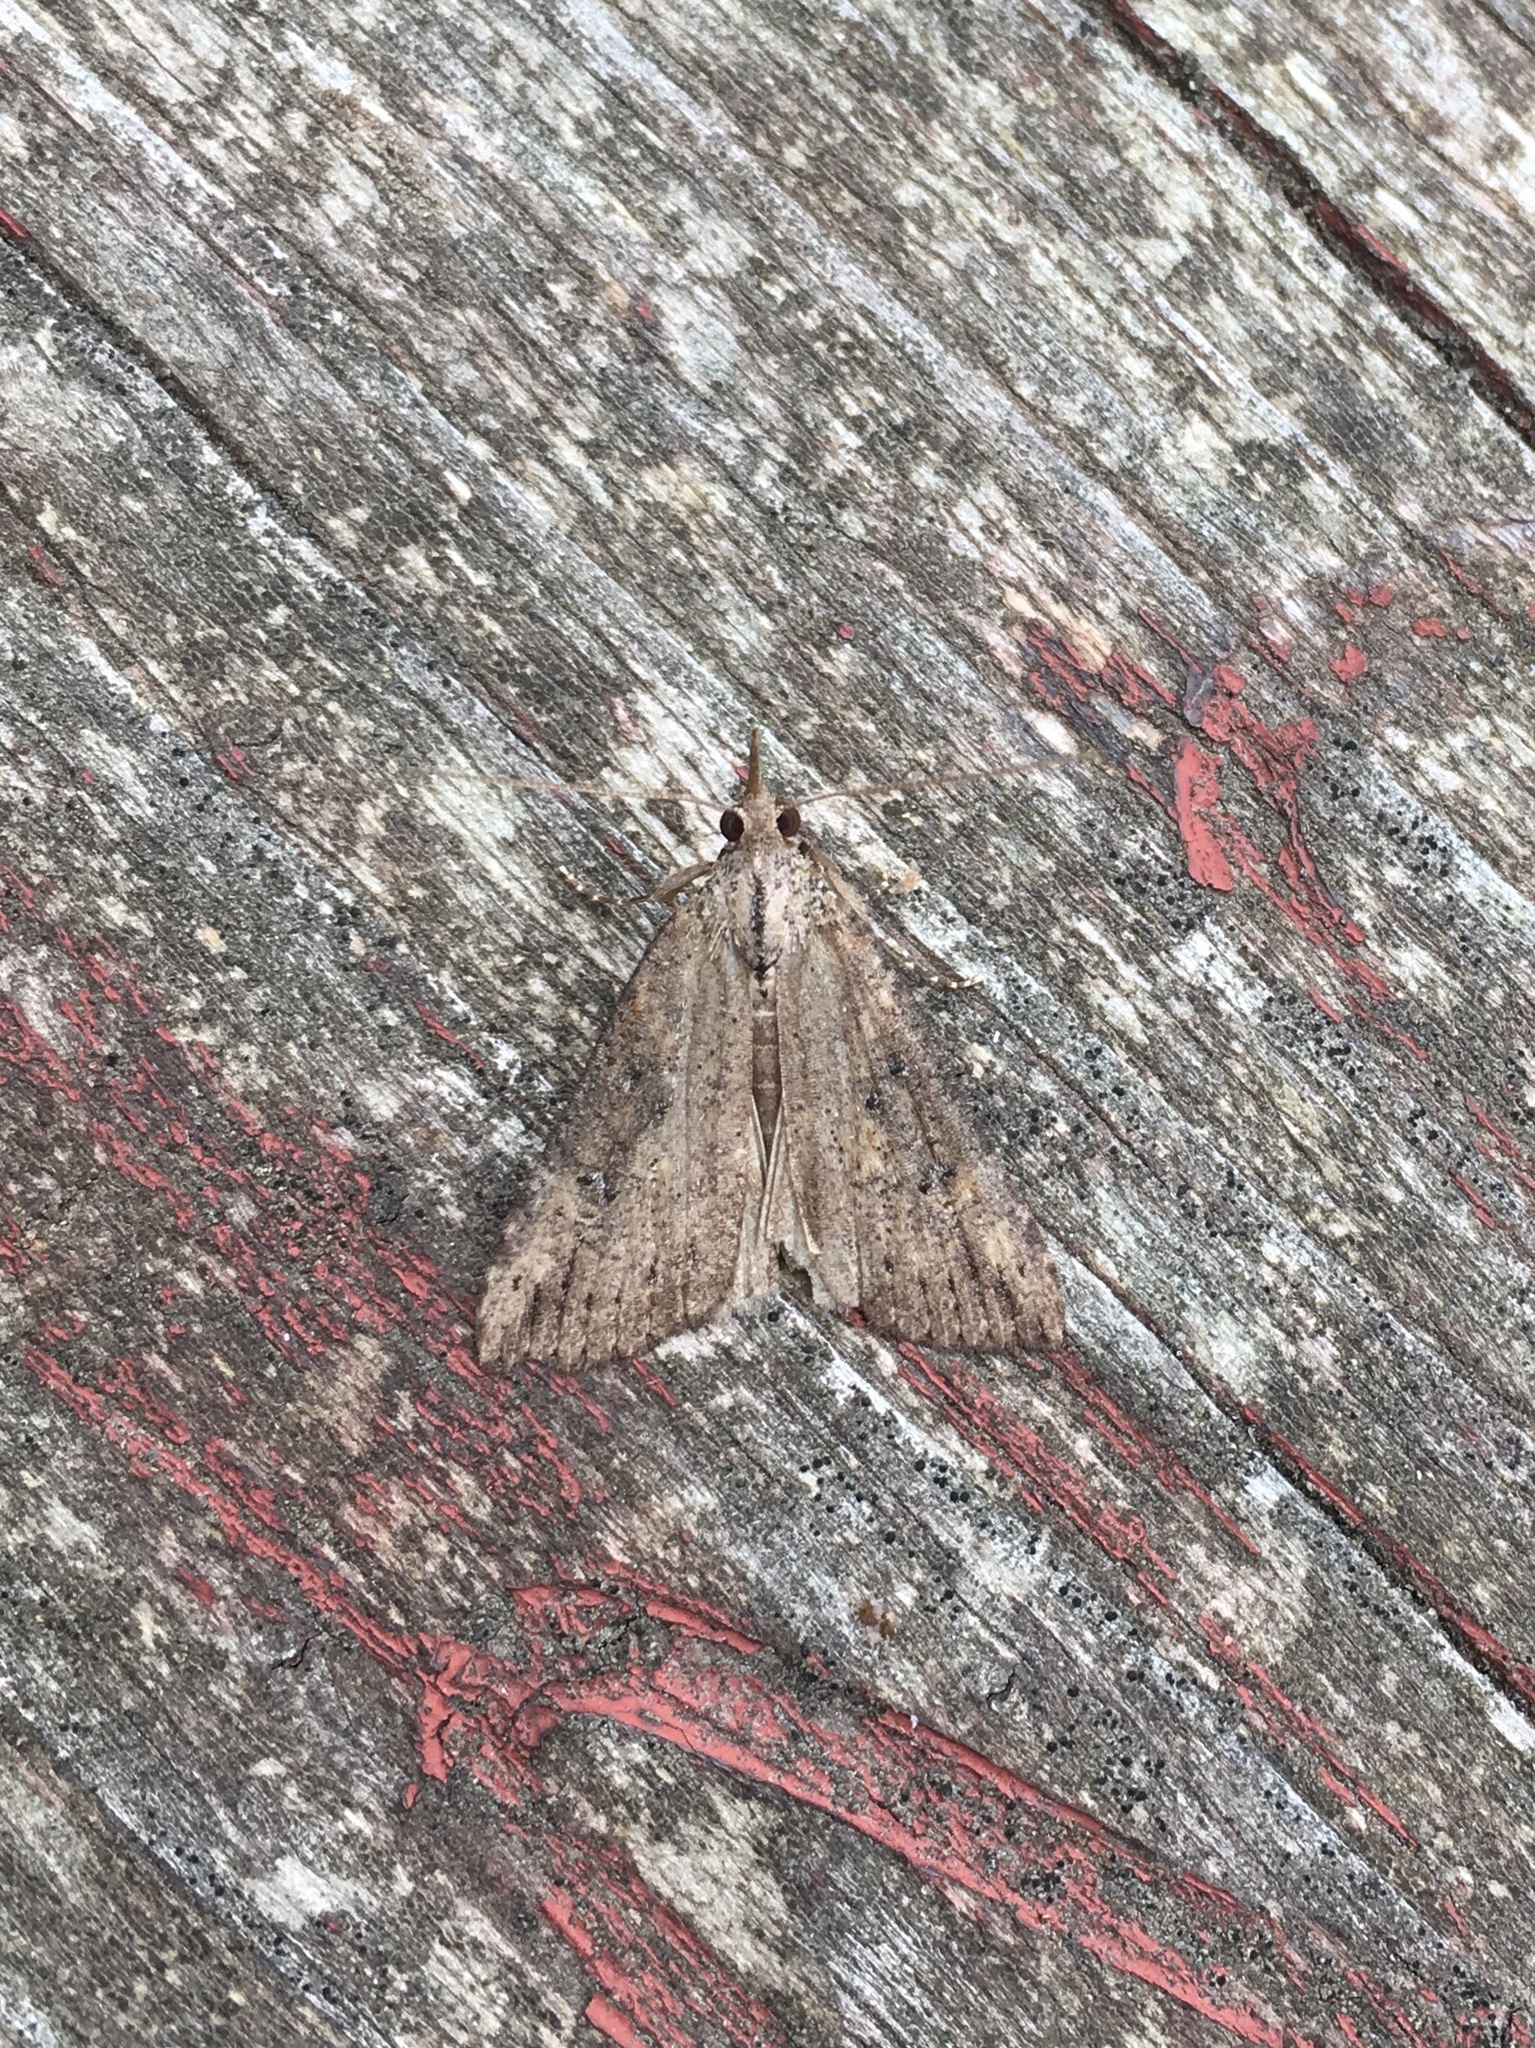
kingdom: Animalia
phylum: Arthropoda
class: Insecta
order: Lepidoptera
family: Erebidae
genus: Hypena
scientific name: Hypena humuli
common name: Hop vine snout
